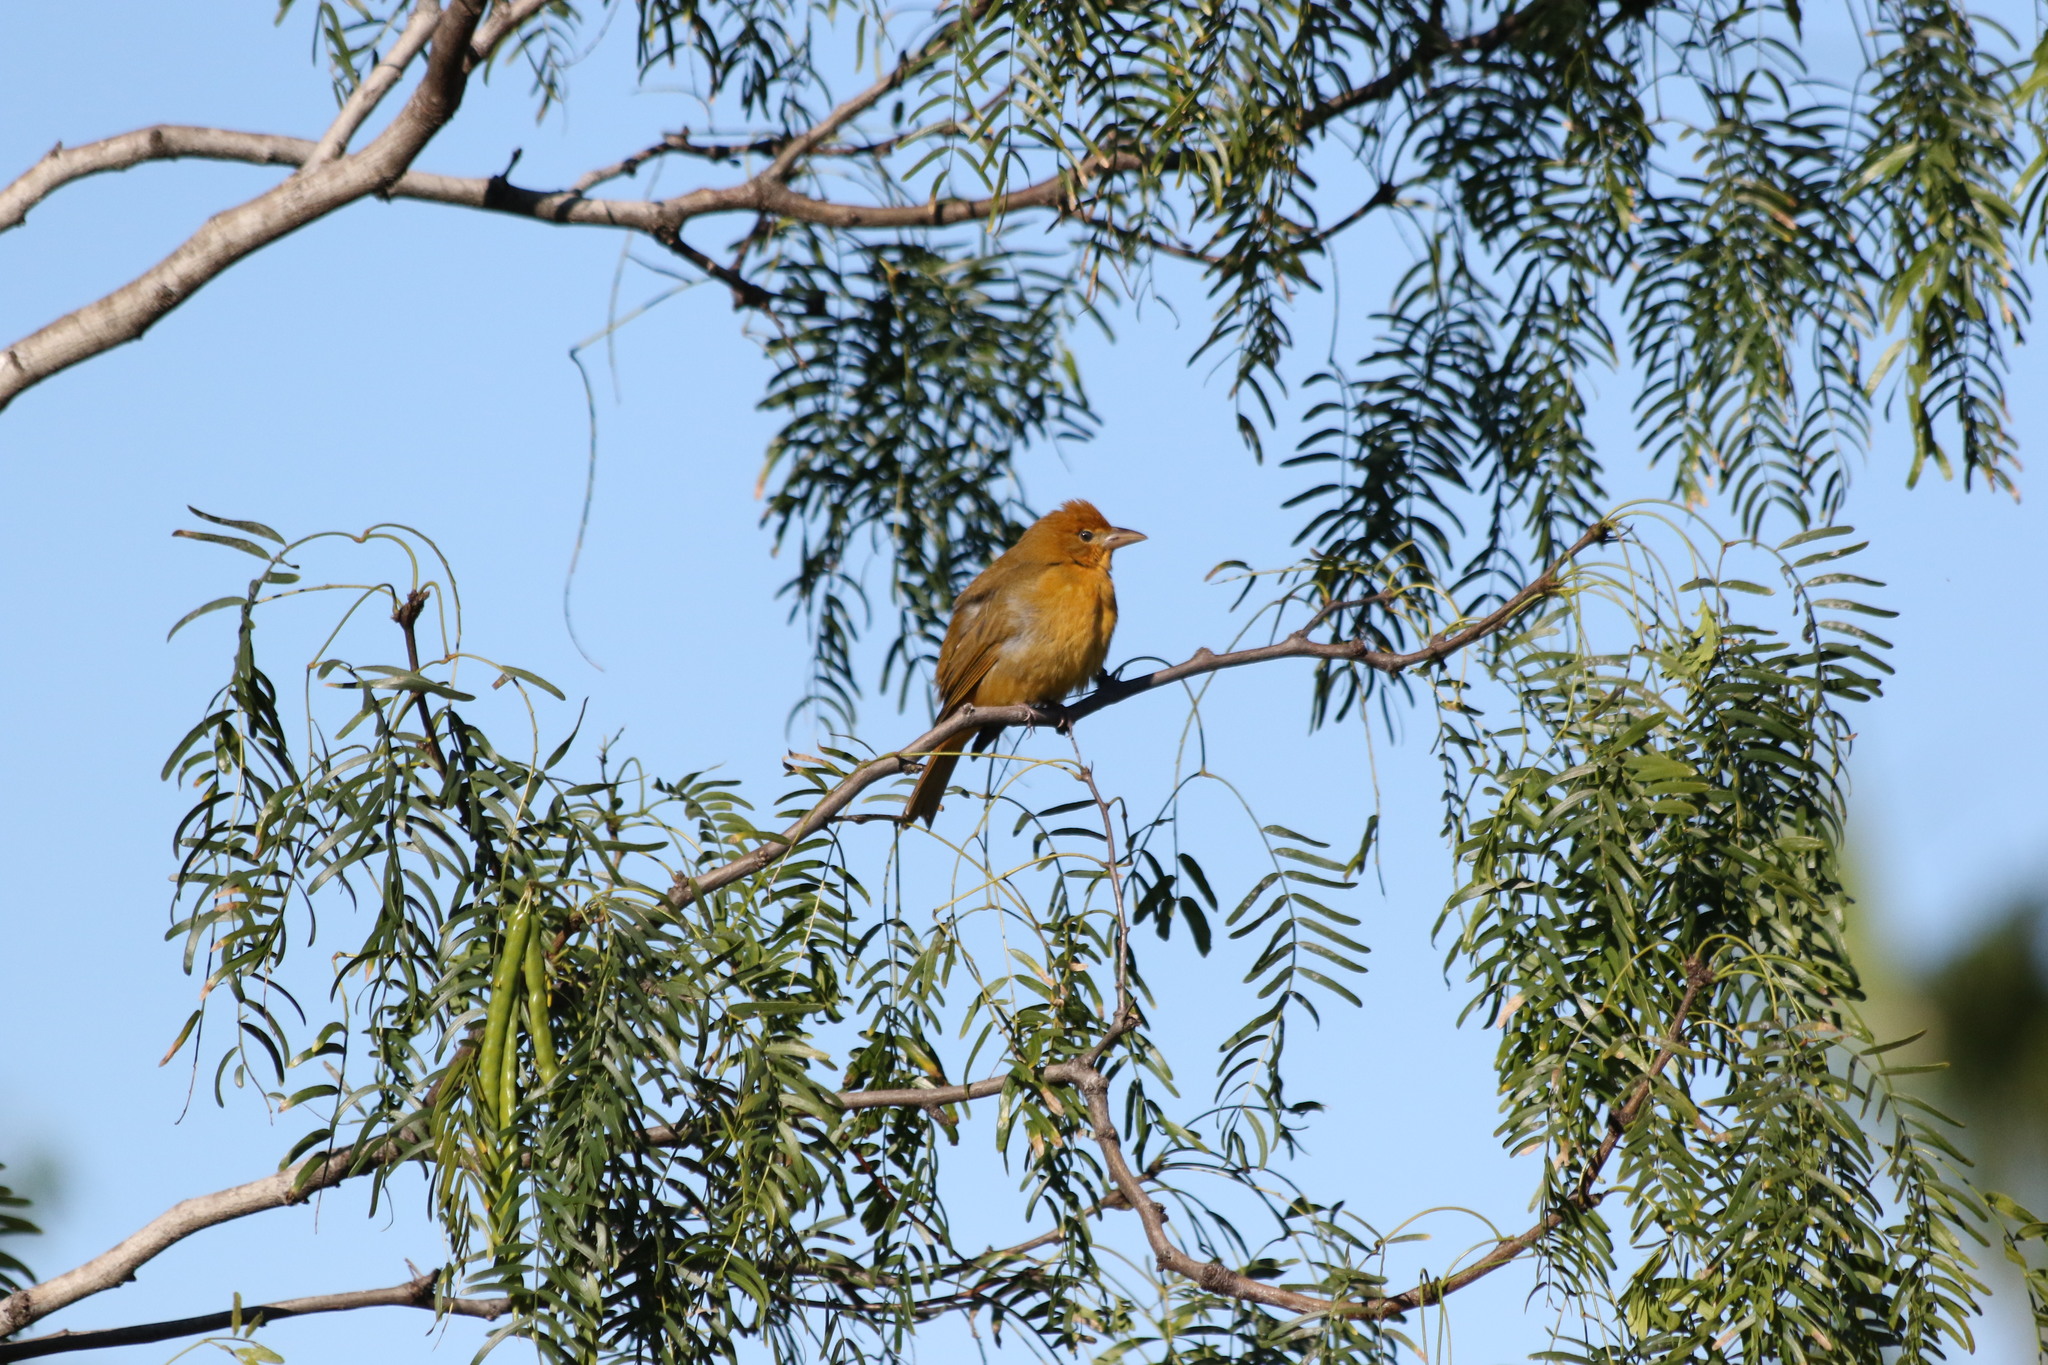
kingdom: Animalia
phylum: Chordata
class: Aves
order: Passeriformes
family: Cardinalidae
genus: Piranga
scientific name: Piranga rubra
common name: Summer tanager
